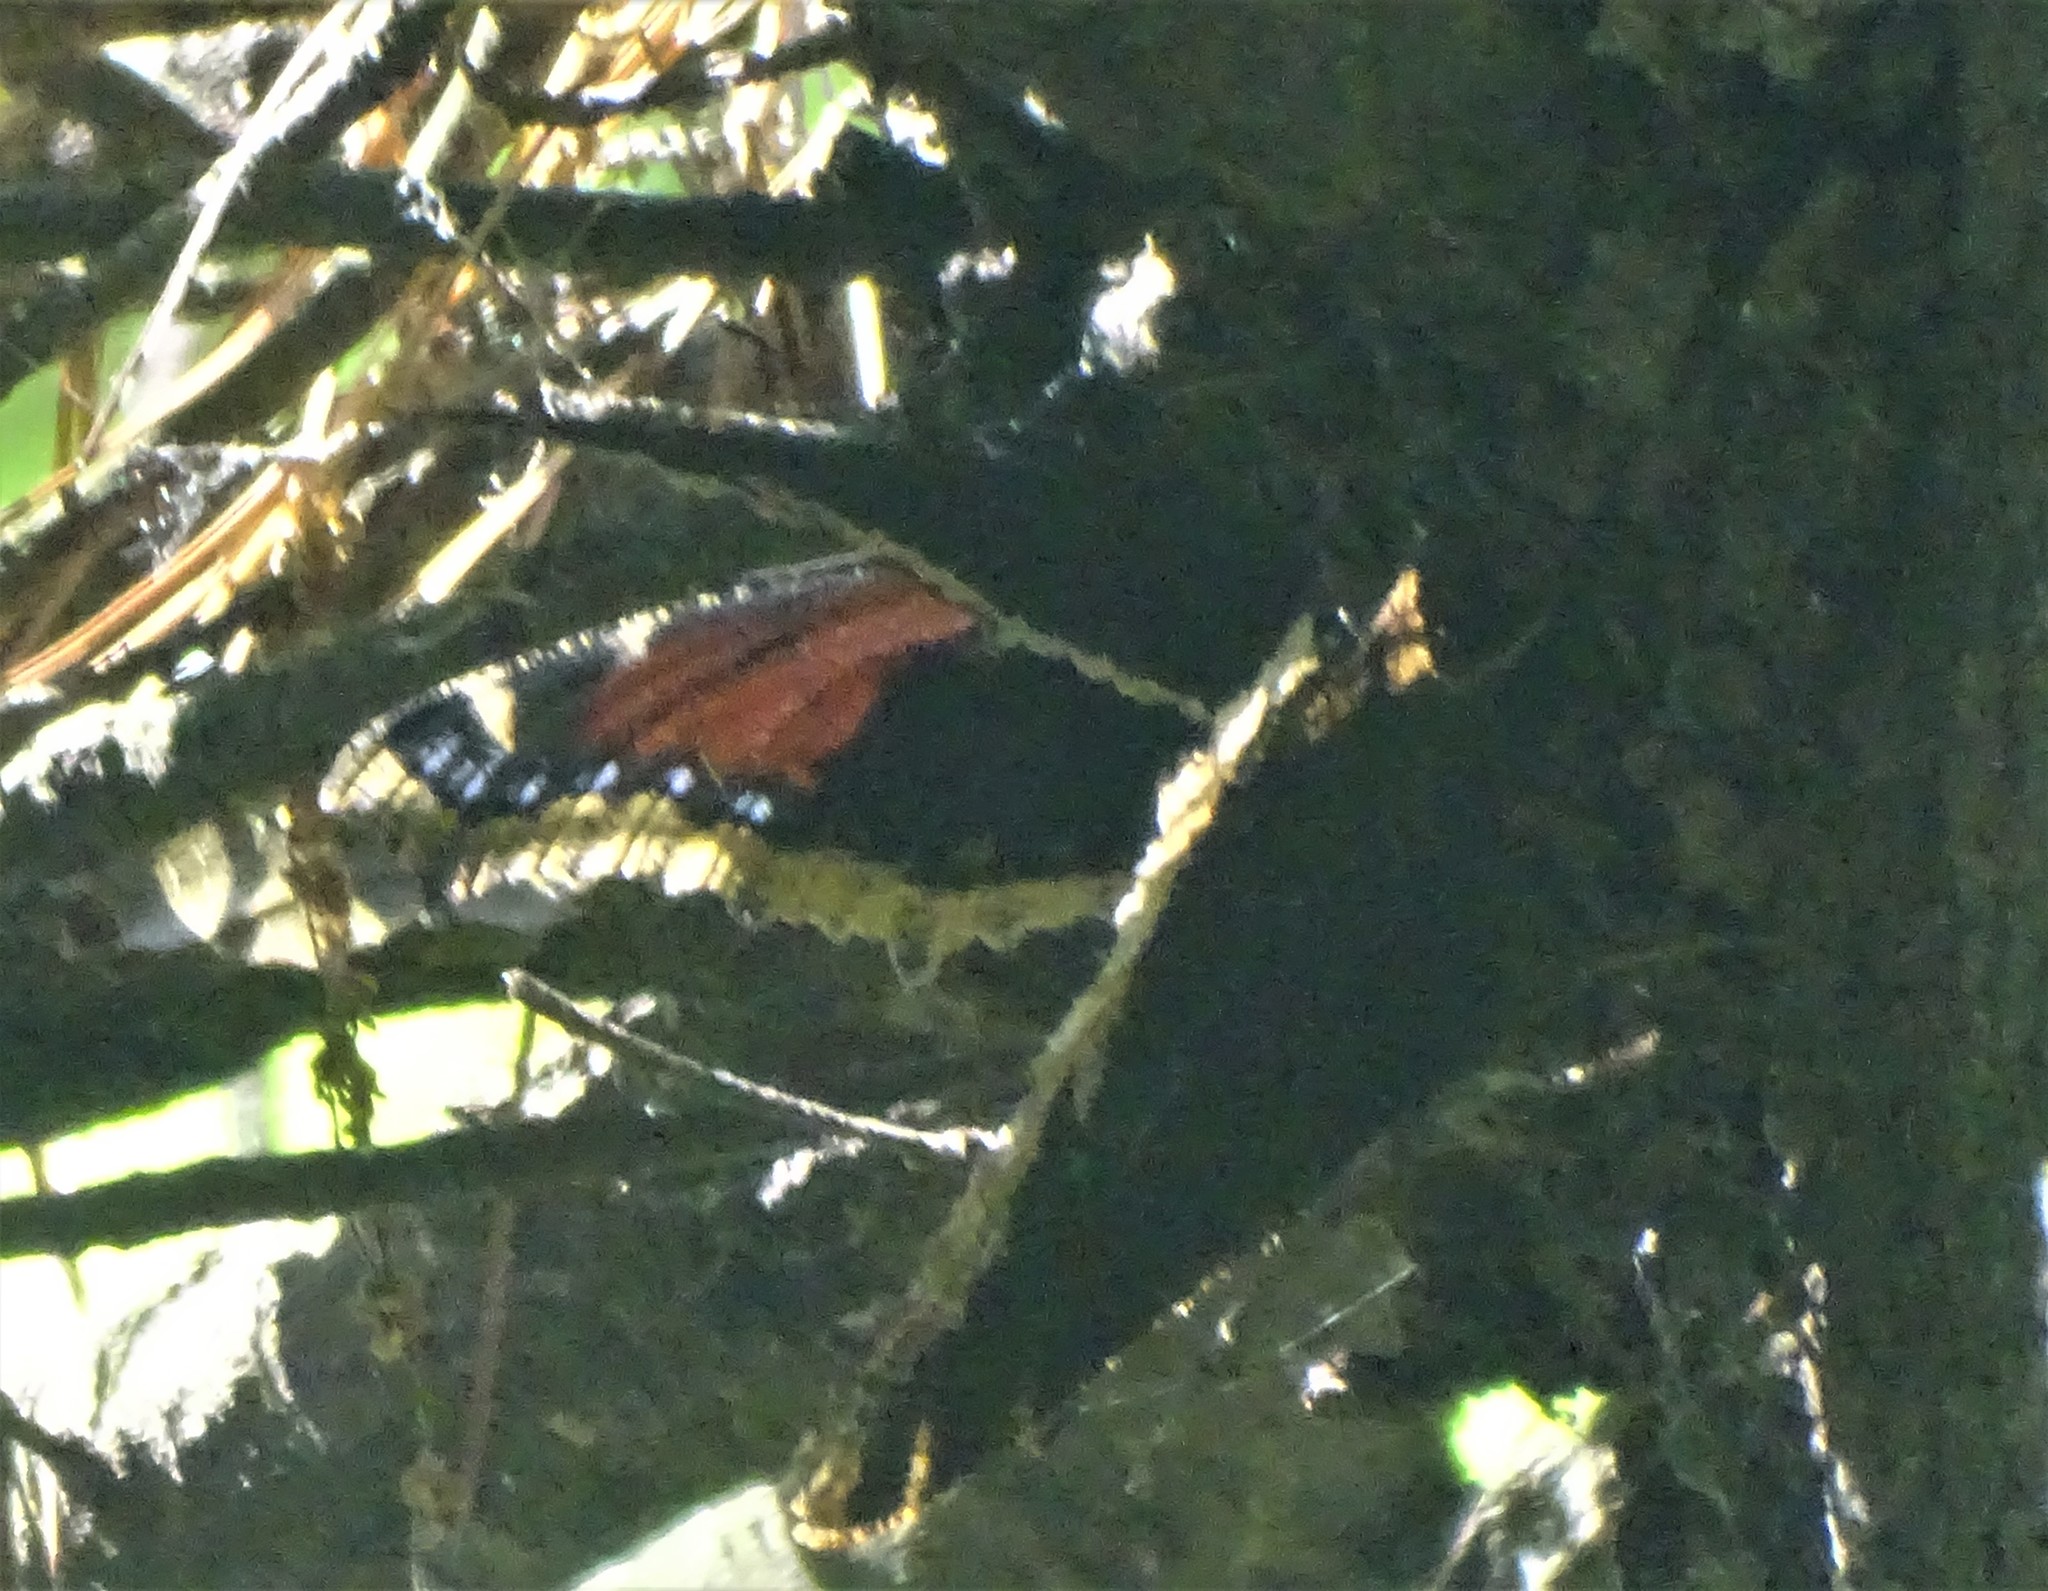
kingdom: Animalia
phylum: Arthropoda
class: Insecta
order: Lepidoptera
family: Nymphalidae
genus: Nymphalis
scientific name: Nymphalis antiopa
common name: Camberwell beauty
